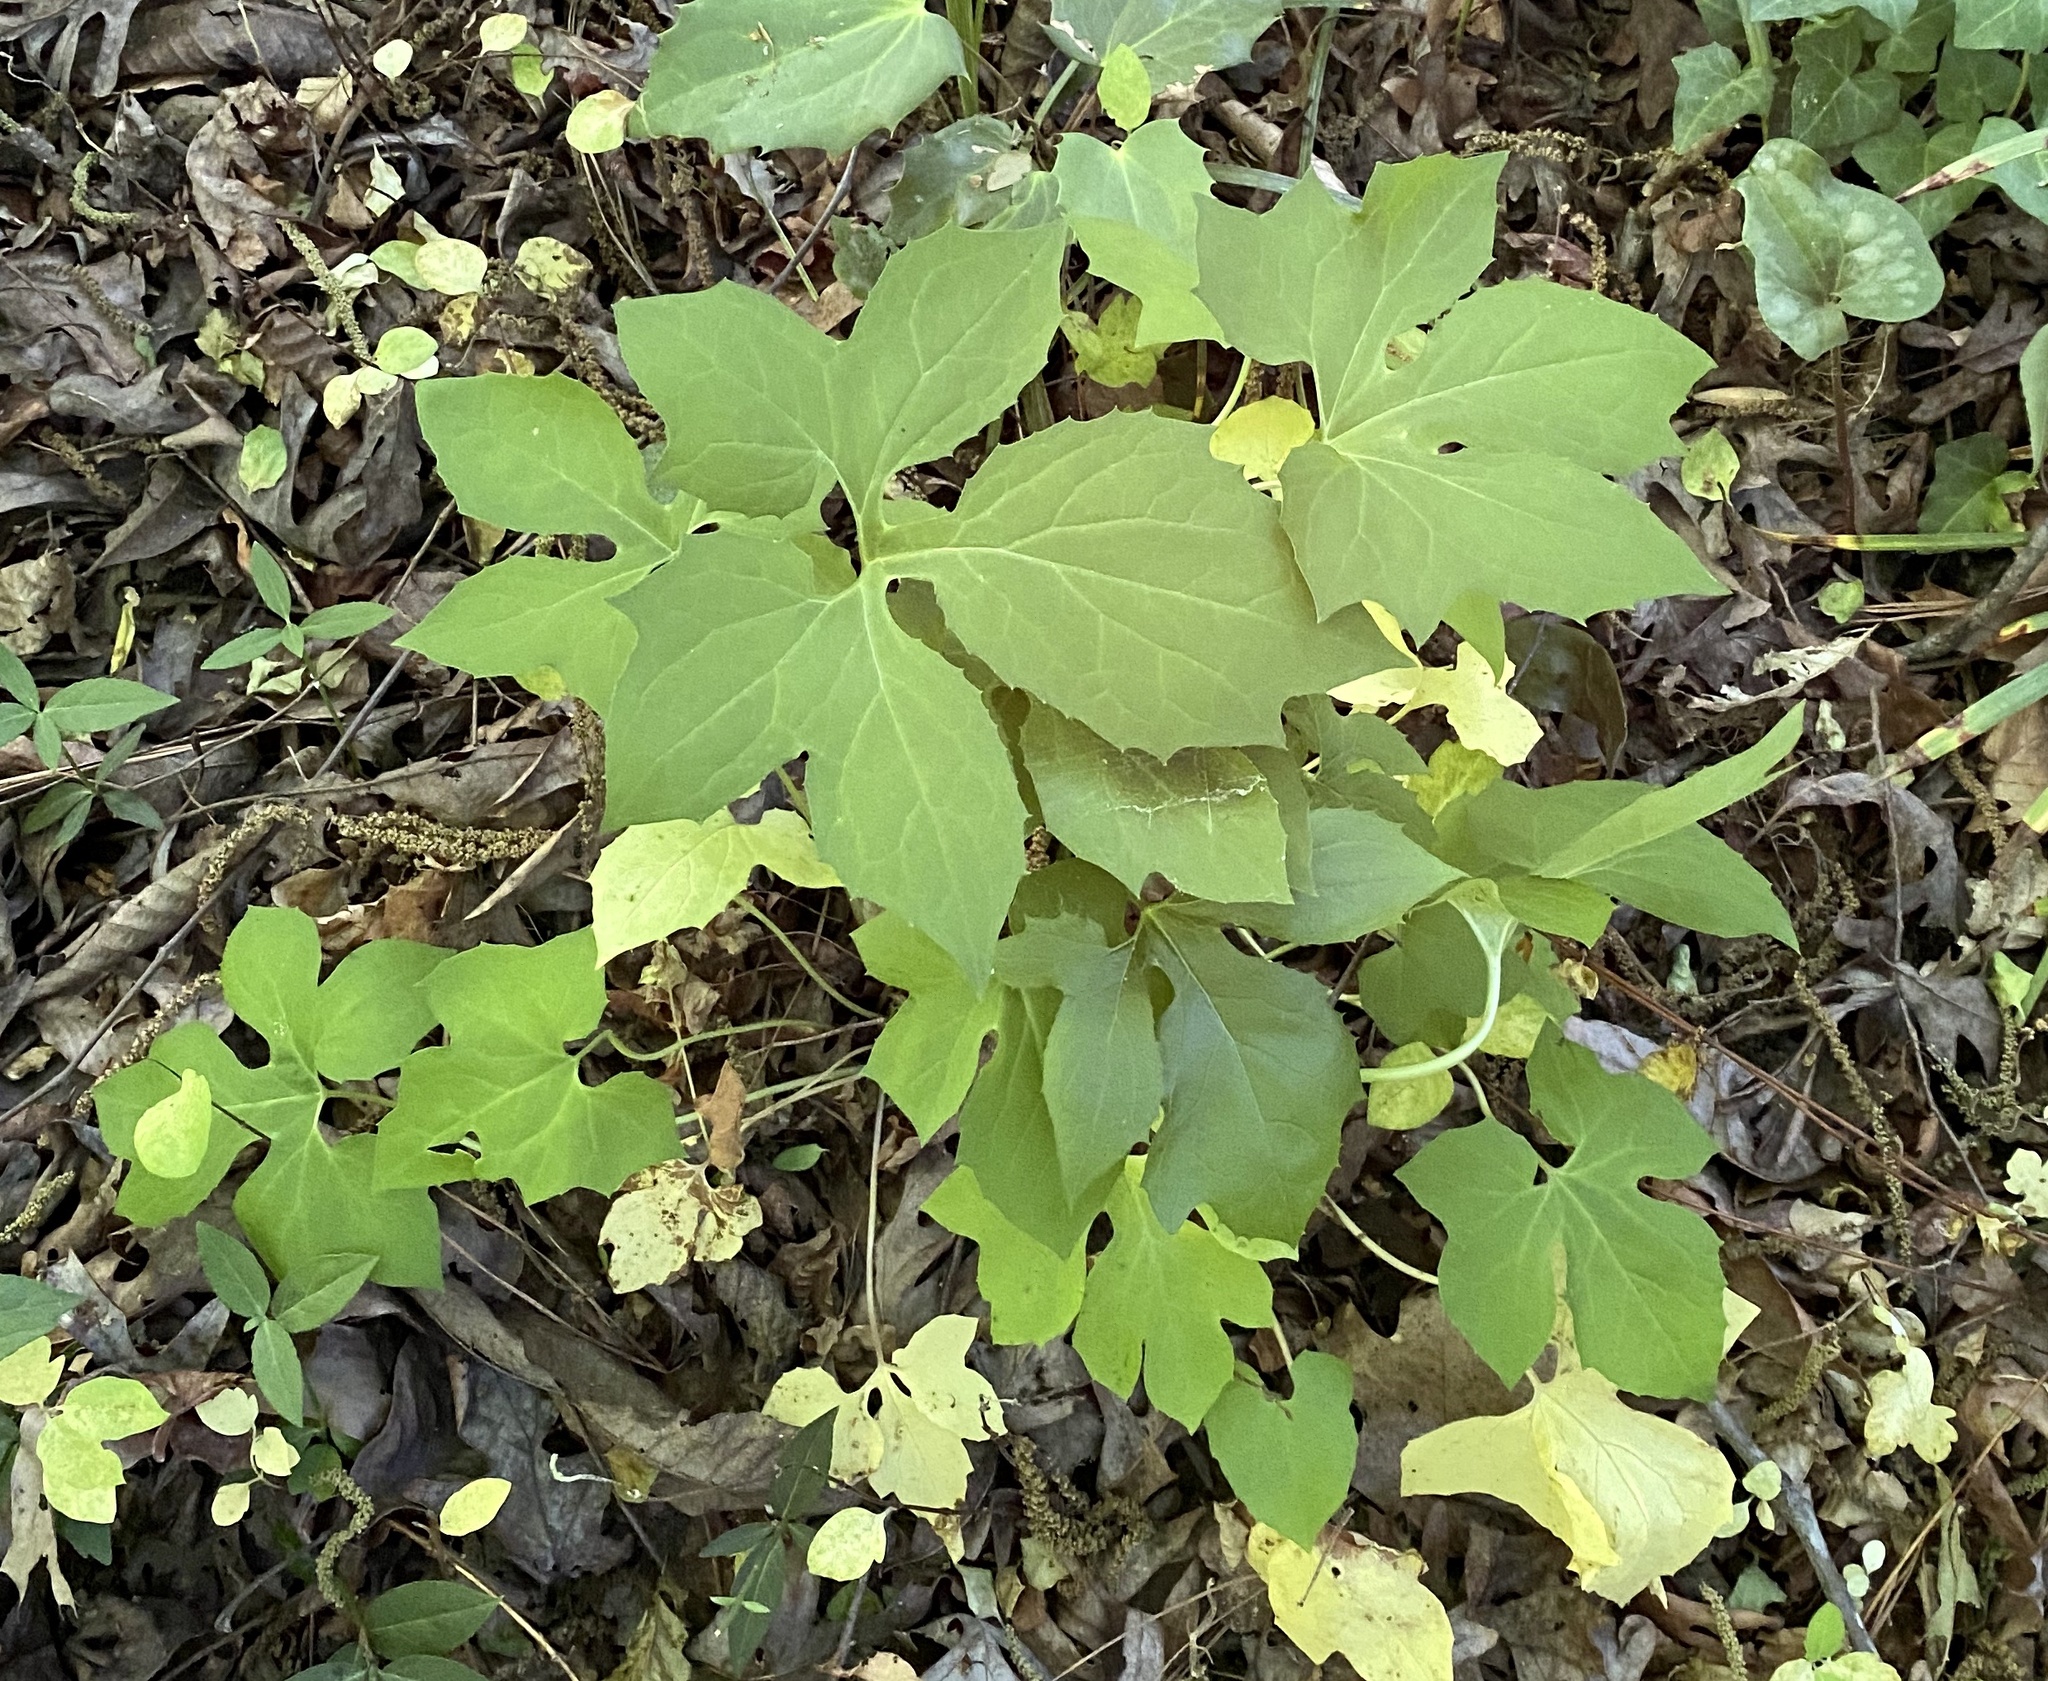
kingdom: Plantae
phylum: Tracheophyta
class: Magnoliopsida
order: Asterales
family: Asteraceae
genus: Nabalus
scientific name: Nabalus trifoliolatus
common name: Gall-of-the-earth
